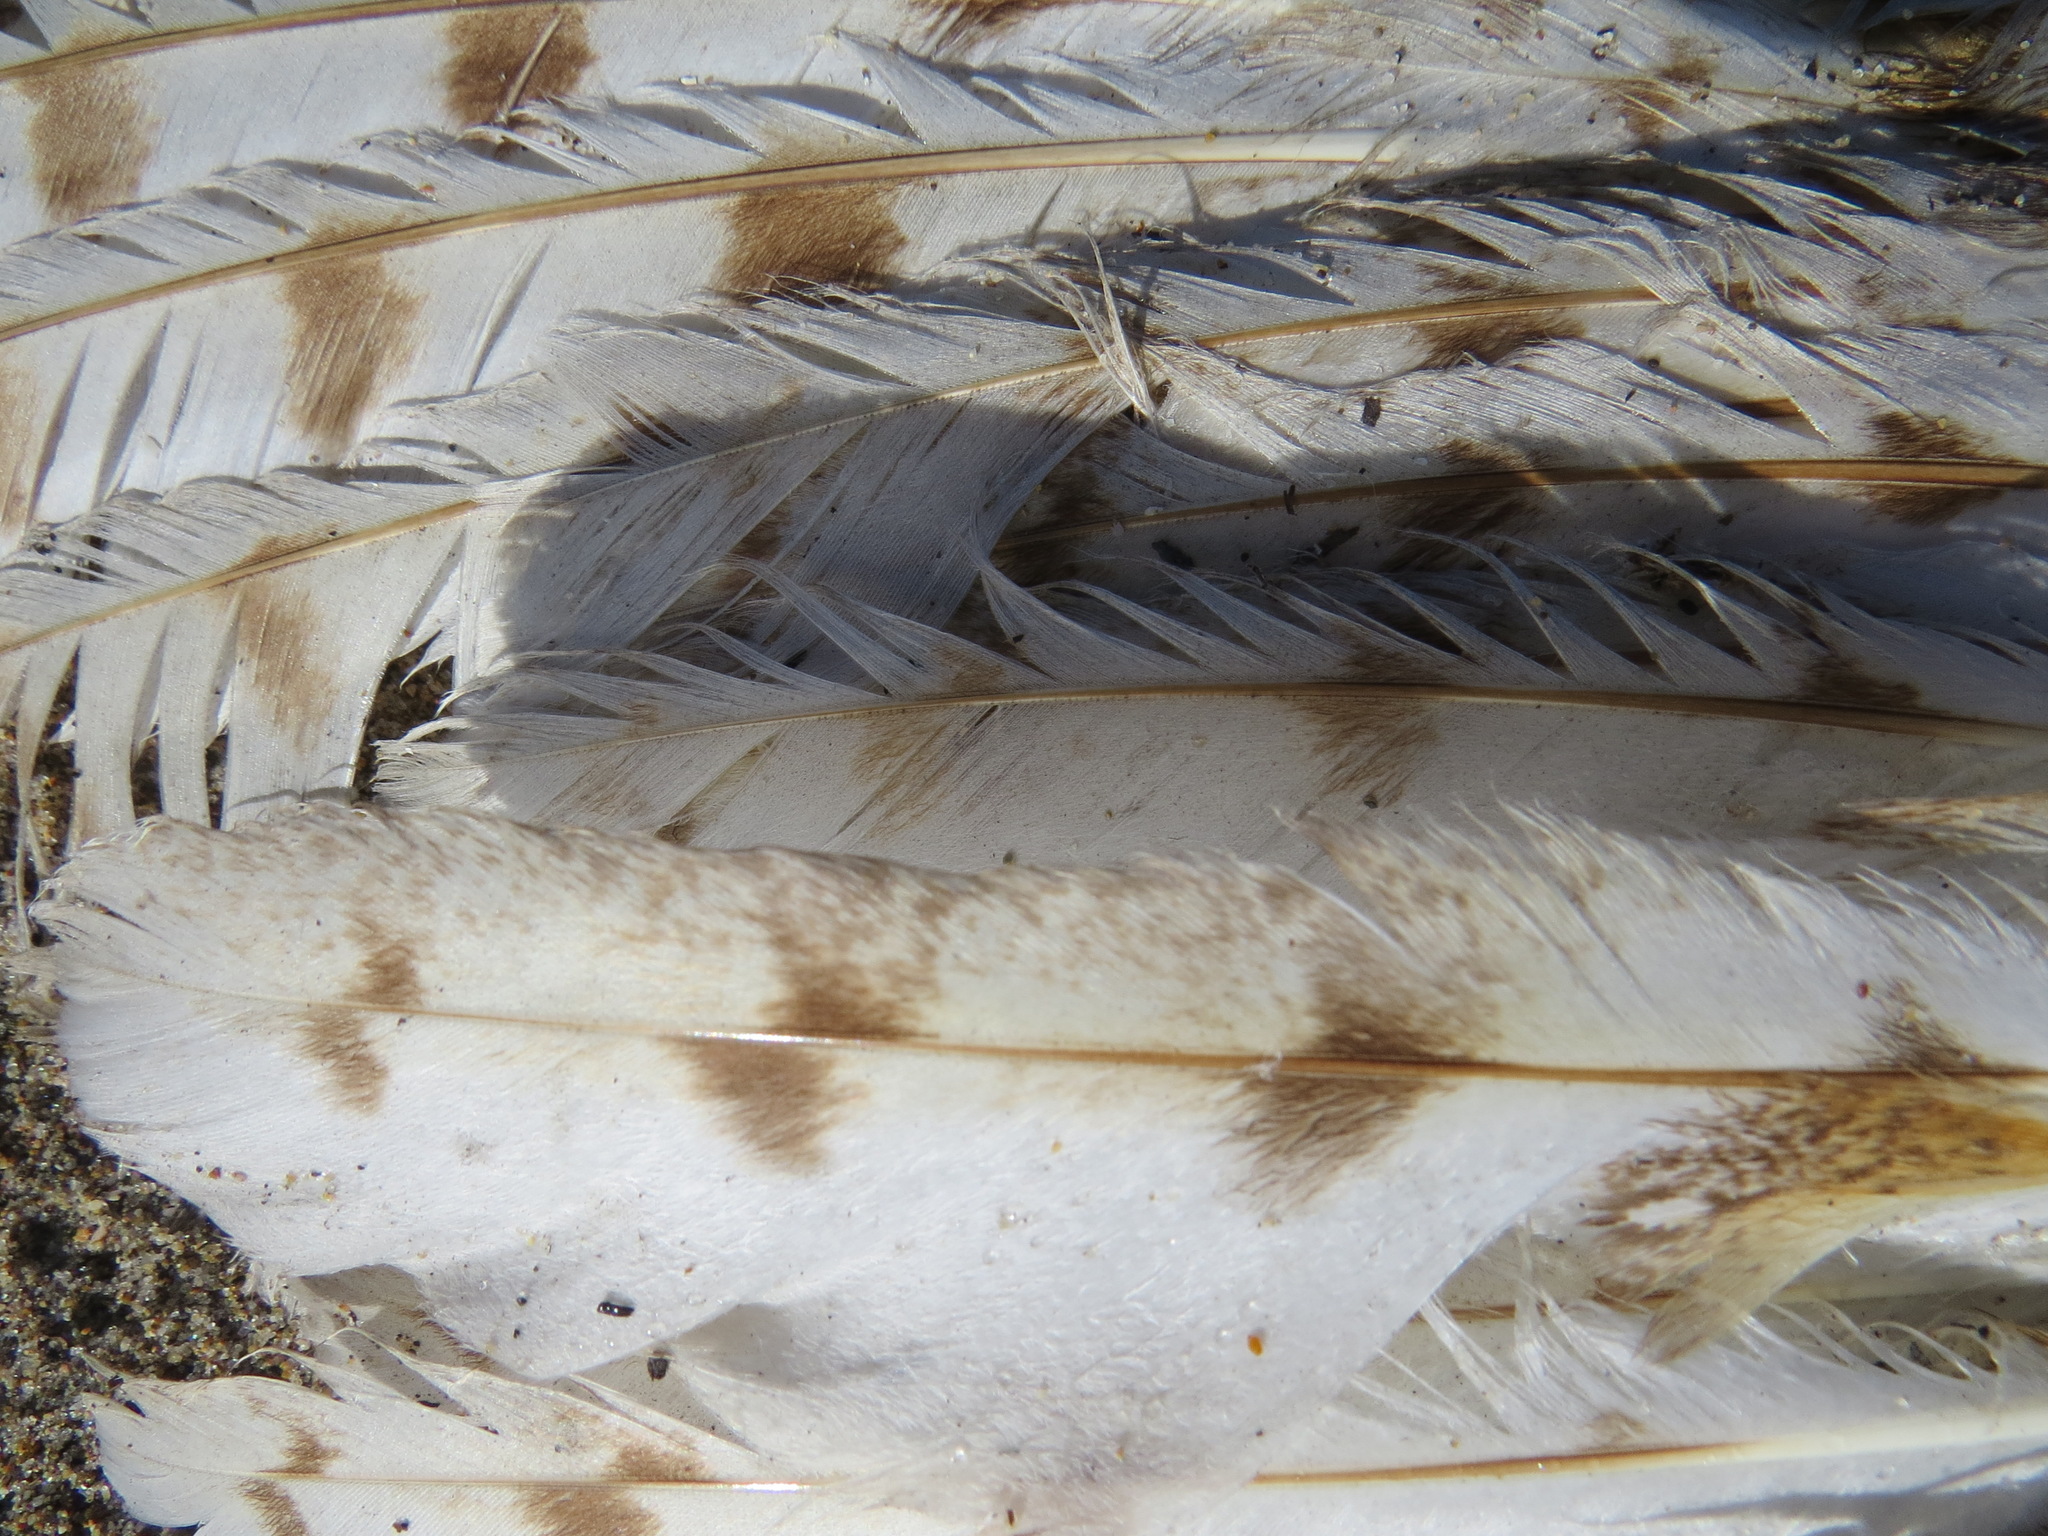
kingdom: Animalia
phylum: Chordata
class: Aves
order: Strigiformes
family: Tytonidae
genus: Tyto
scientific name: Tyto alba
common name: Barn owl
